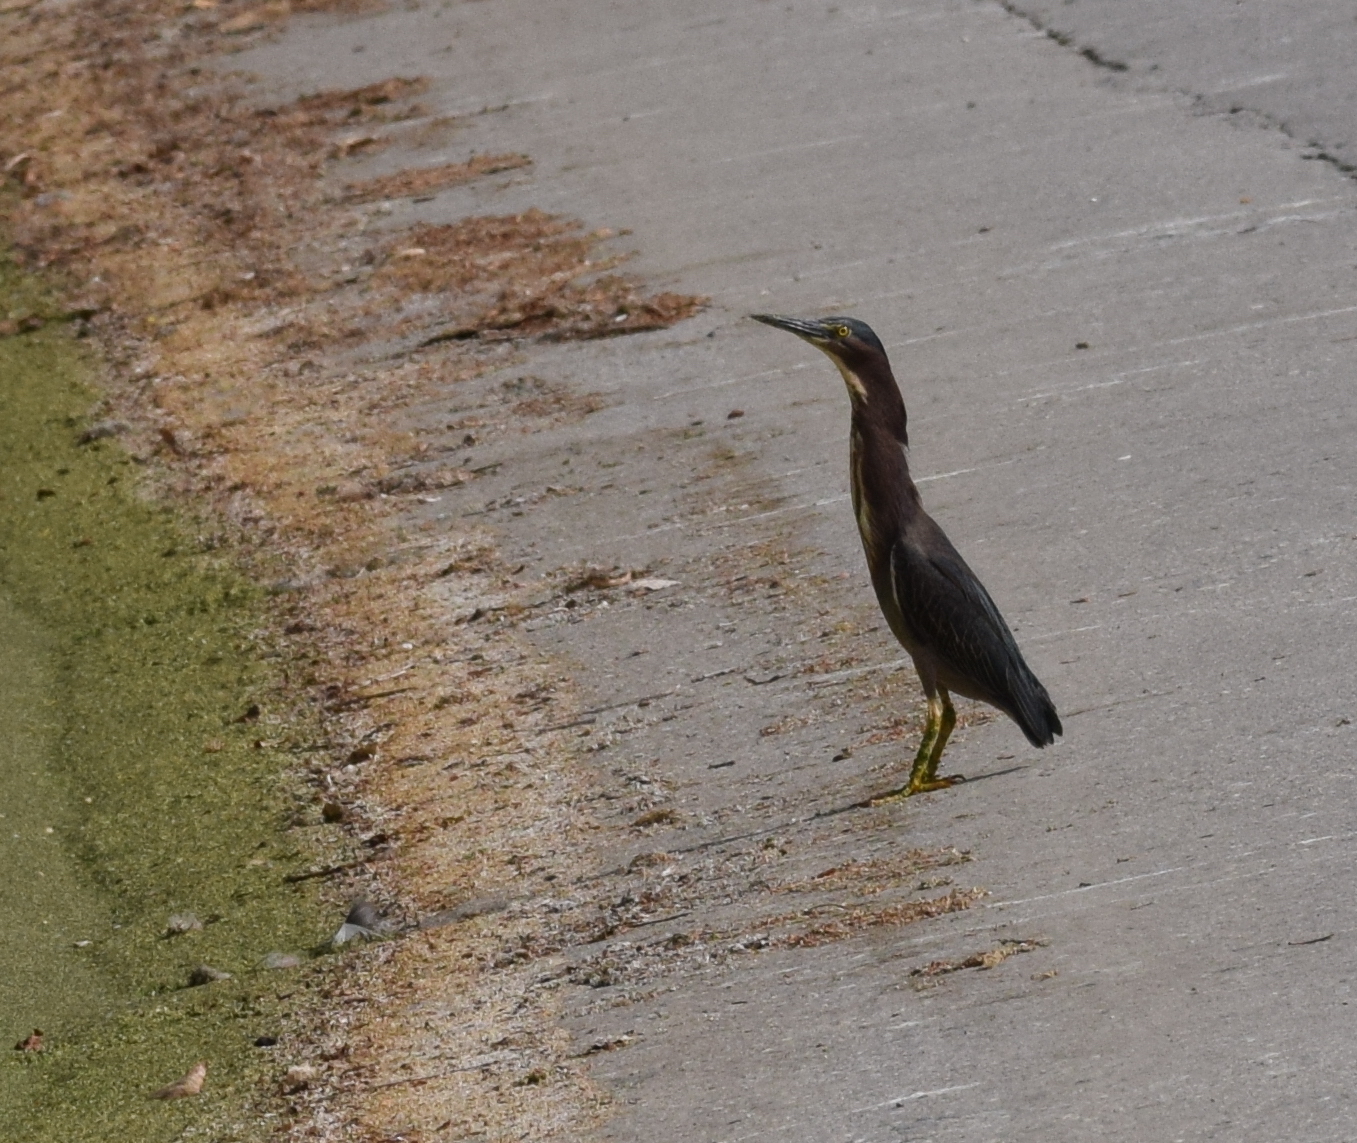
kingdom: Animalia
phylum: Chordata
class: Aves
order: Pelecaniformes
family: Ardeidae
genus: Butorides
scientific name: Butorides virescens
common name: Green heron
